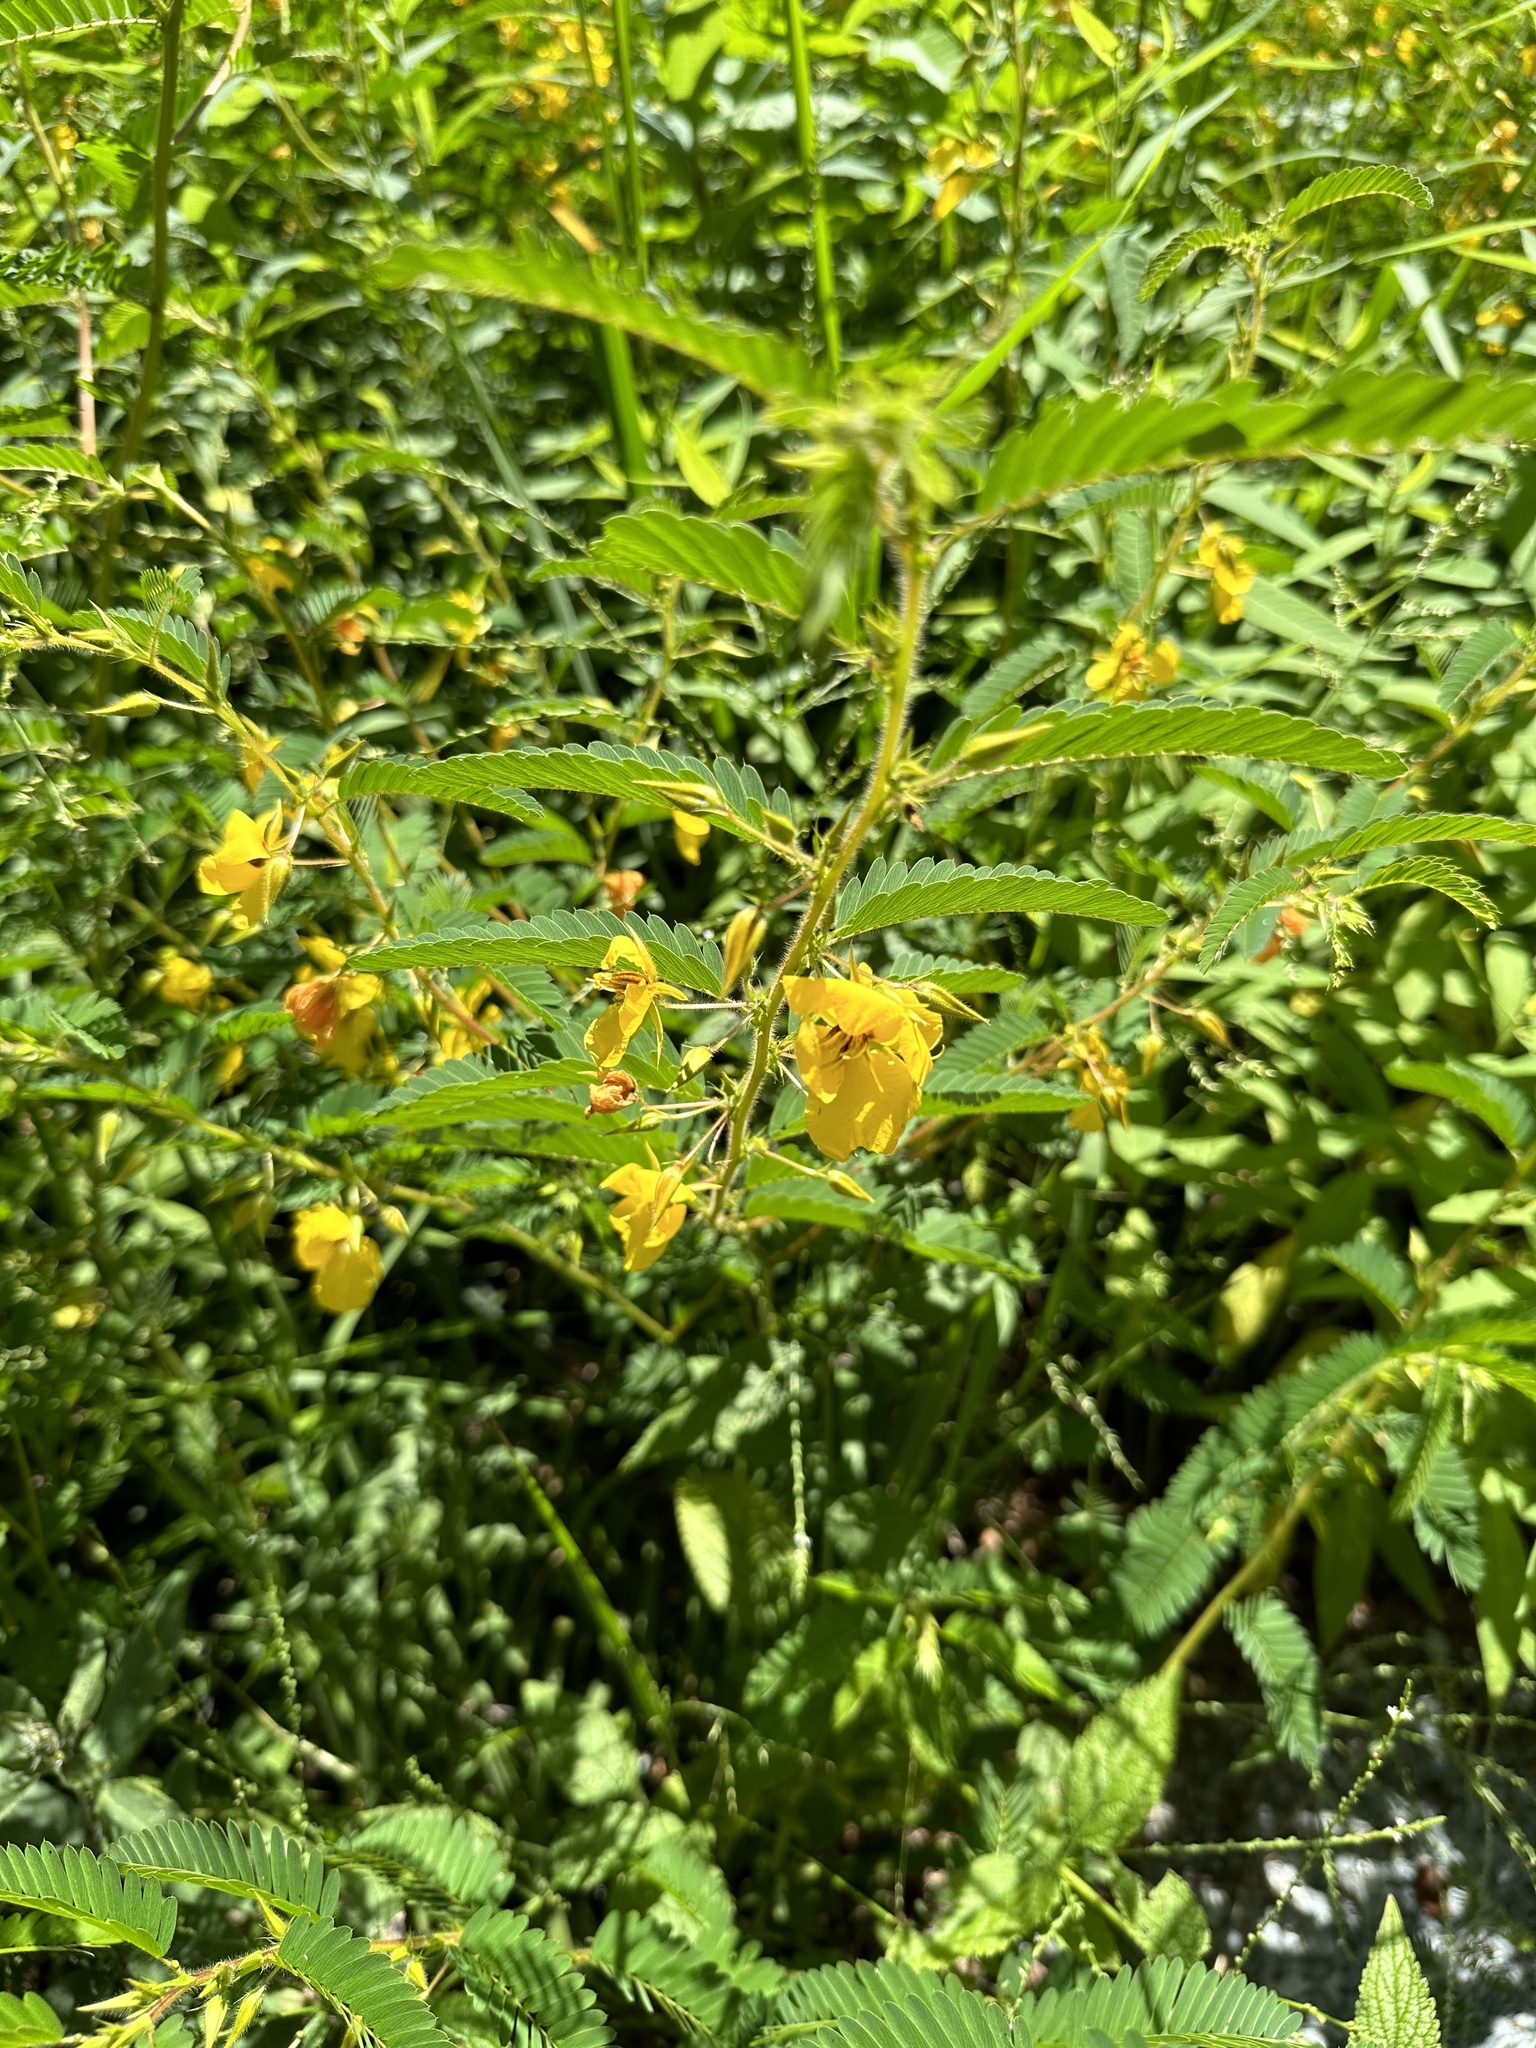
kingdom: Plantae
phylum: Tracheophyta
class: Magnoliopsida
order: Fabales
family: Fabaceae
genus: Chamaecrista
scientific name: Chamaecrista fasciculata
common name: Golden cassia
